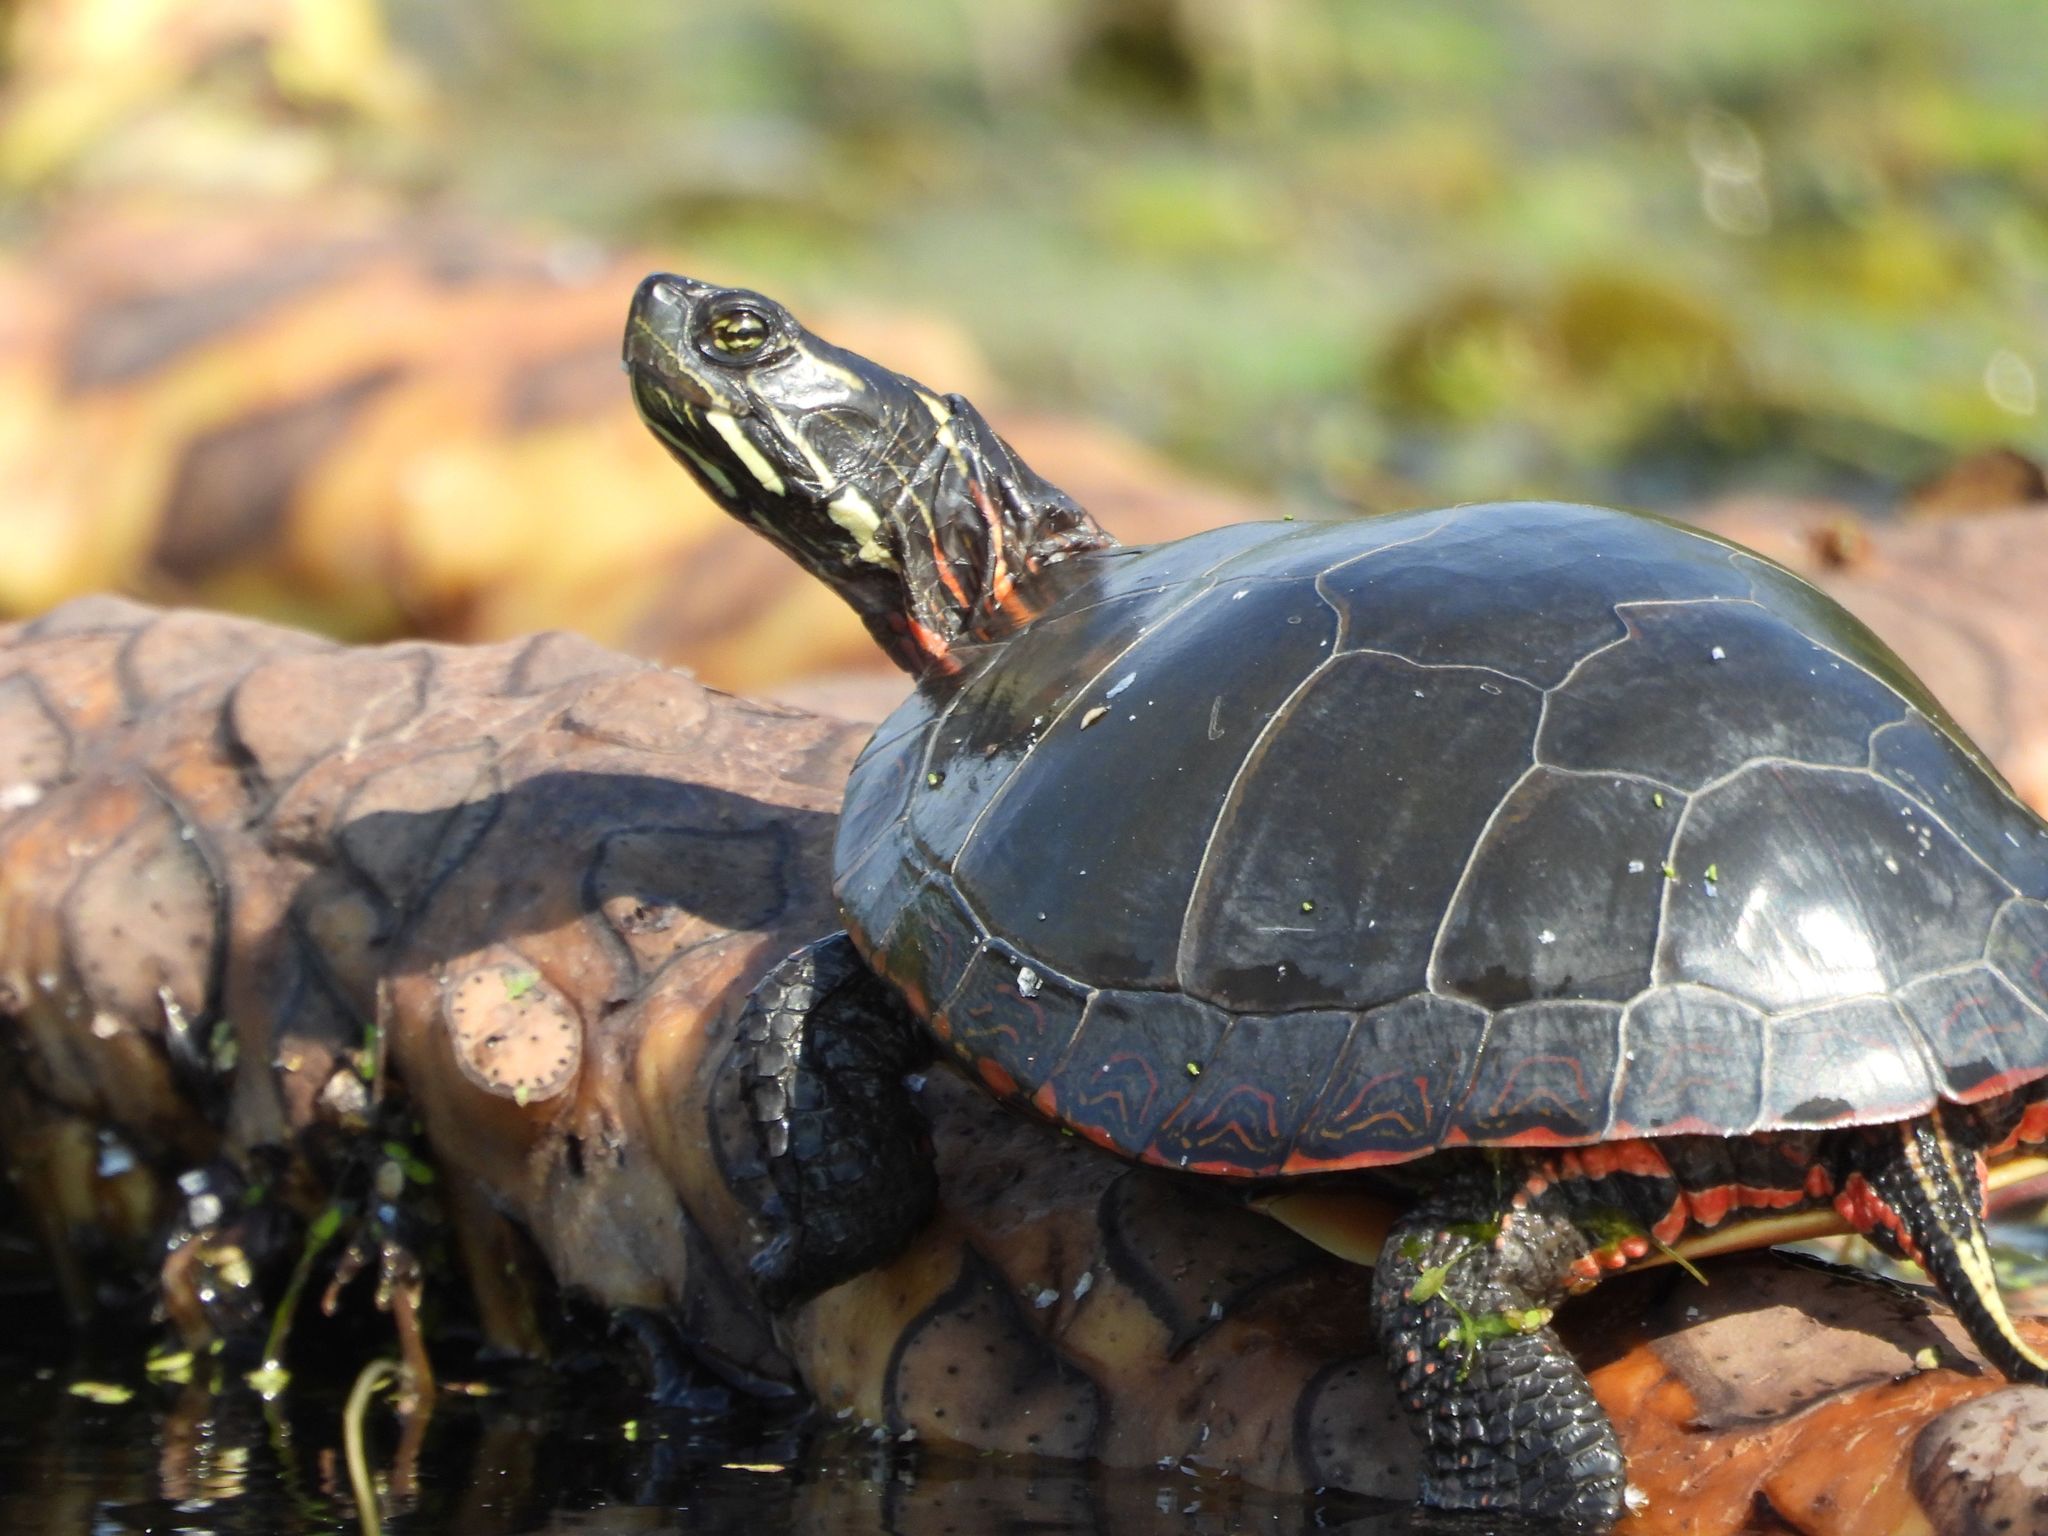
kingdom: Animalia
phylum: Chordata
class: Testudines
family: Emydidae
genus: Chrysemys
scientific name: Chrysemys picta
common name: Painted turtle
